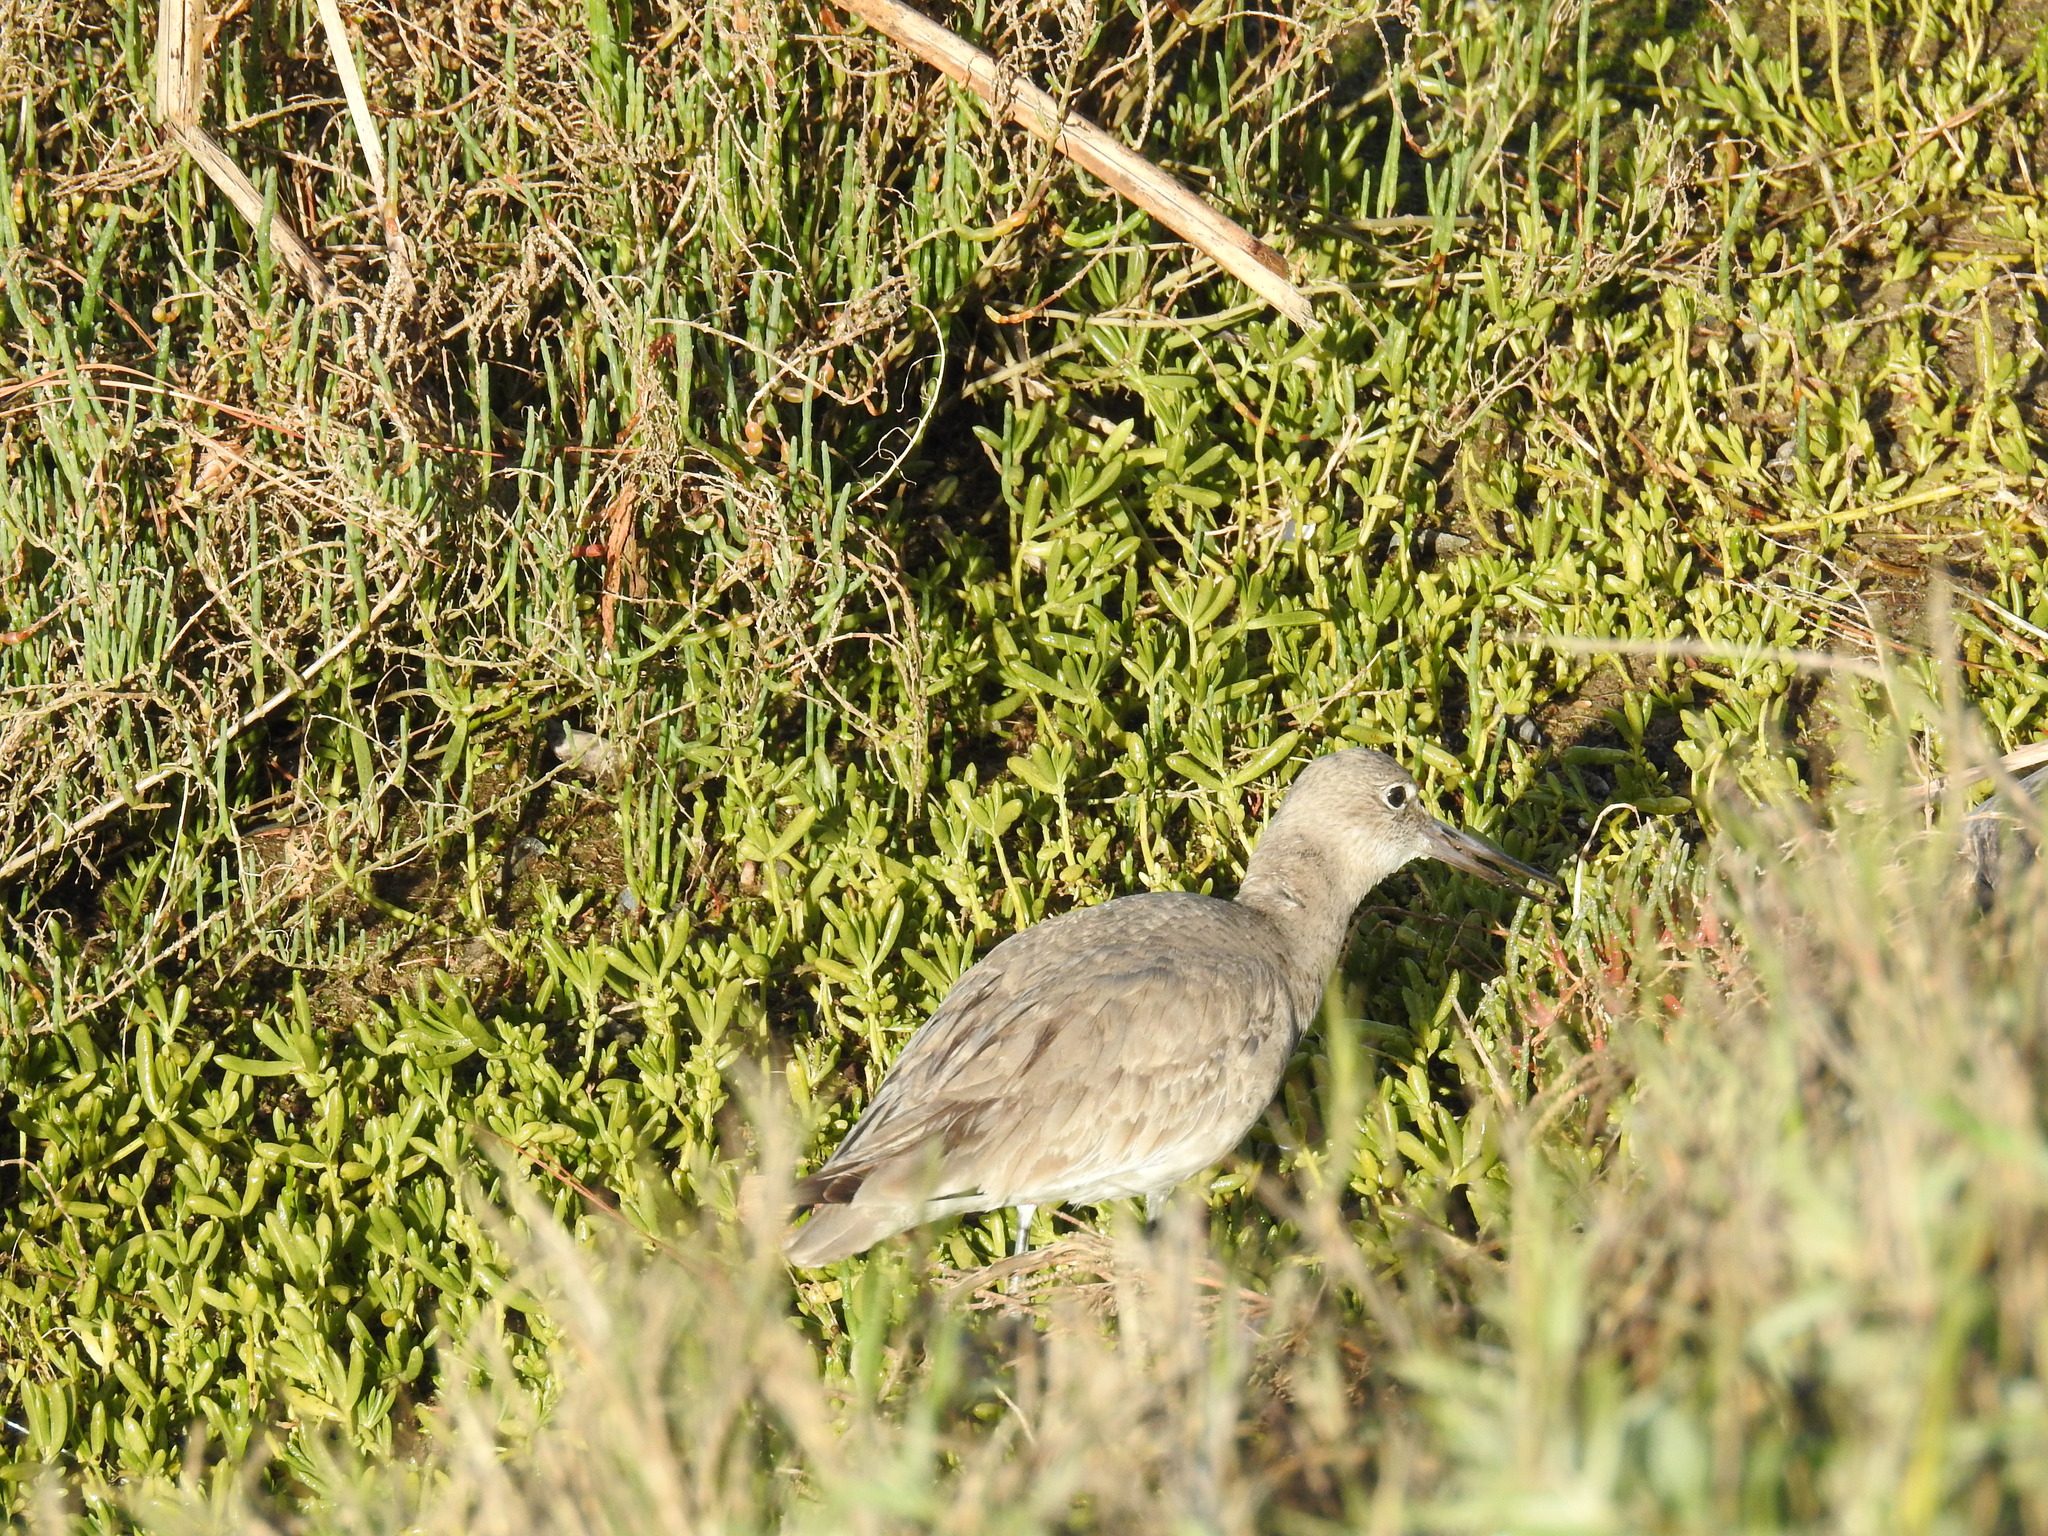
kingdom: Animalia
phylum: Chordata
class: Aves
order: Charadriiformes
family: Scolopacidae
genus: Tringa
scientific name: Tringa semipalmata
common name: Willet
